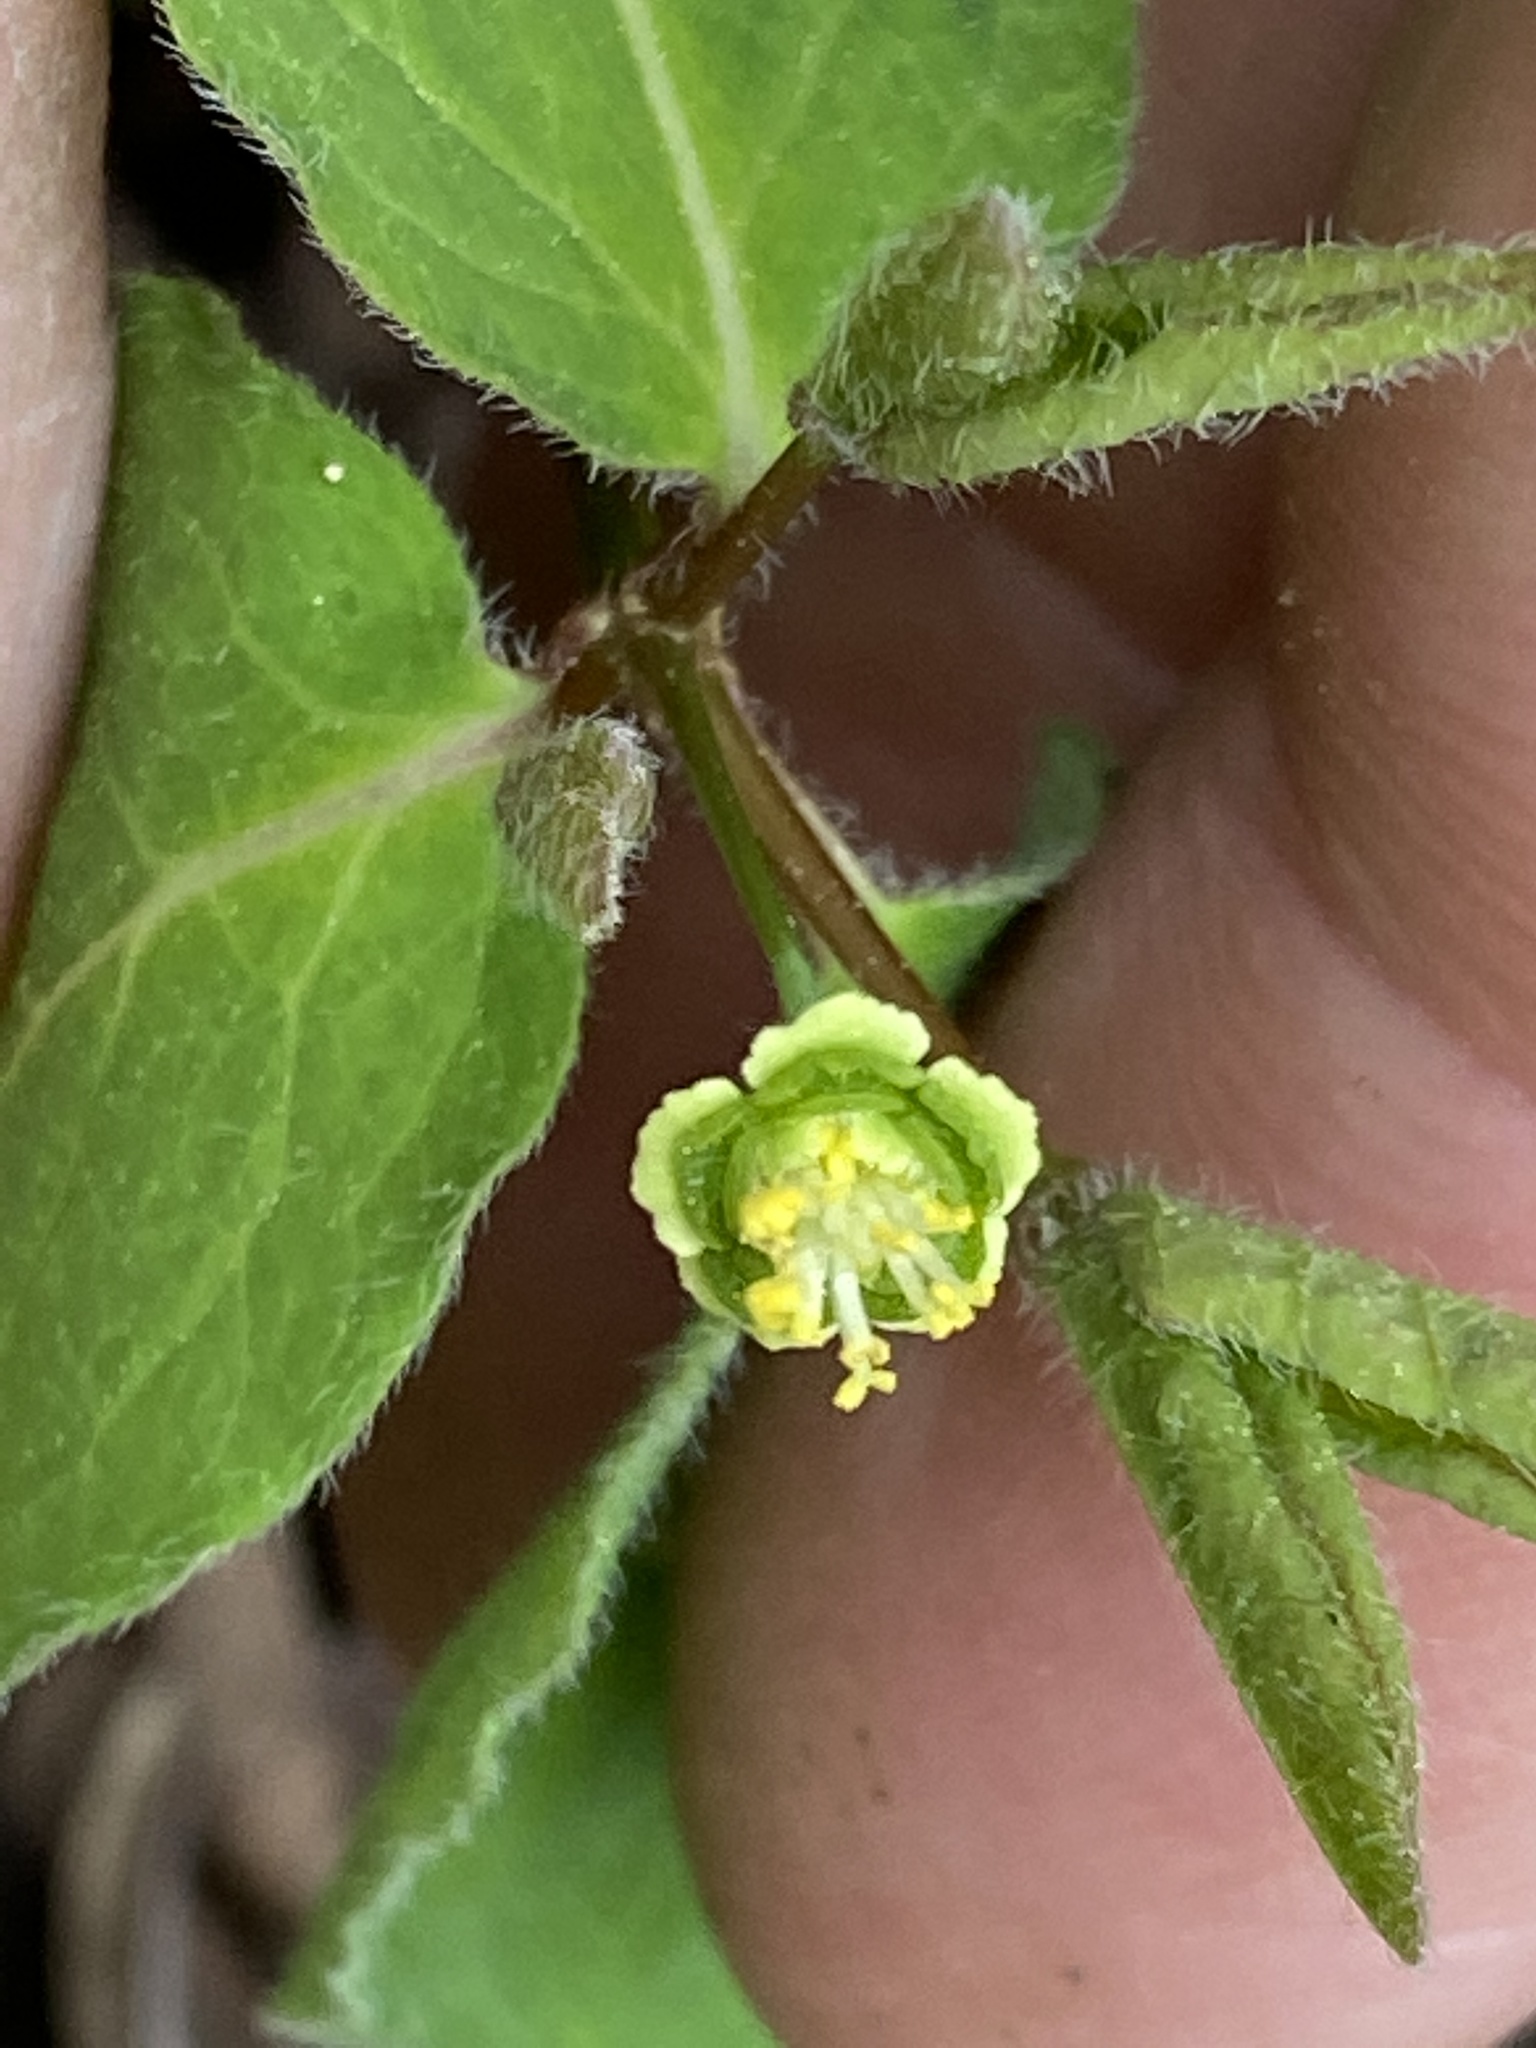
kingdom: Plantae
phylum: Tracheophyta
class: Magnoliopsida
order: Malpighiales
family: Euphorbiaceae
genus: Euphorbia
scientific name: Euphorbia mercurialina
